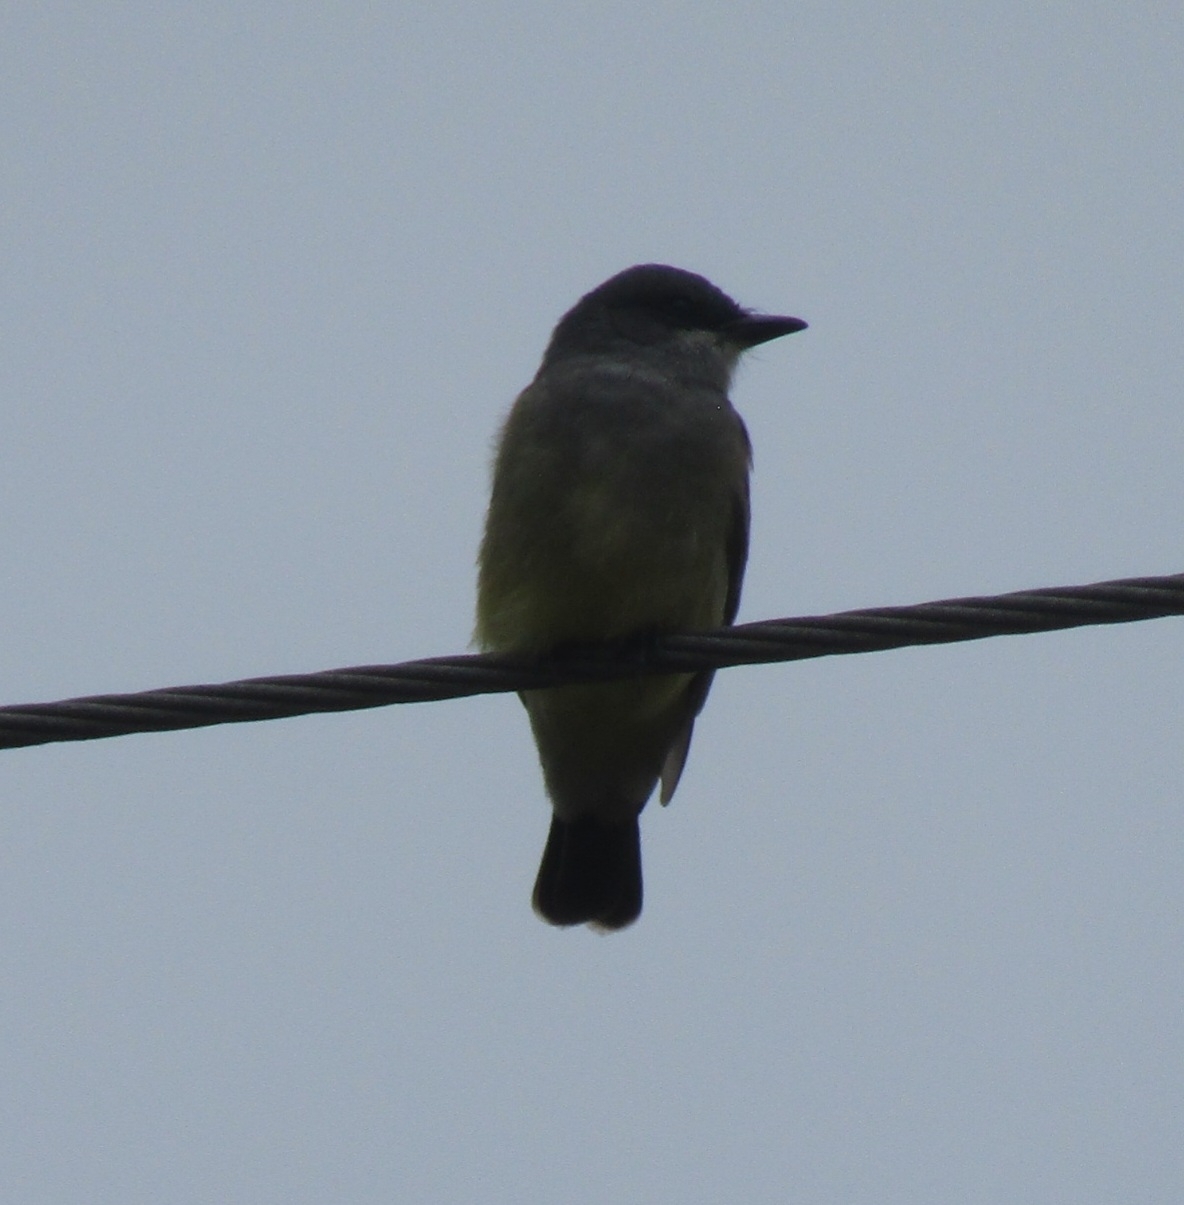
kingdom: Animalia
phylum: Chordata
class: Aves
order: Passeriformes
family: Tyrannidae
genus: Tyrannus
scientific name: Tyrannus vociferans
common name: Cassin's kingbird
